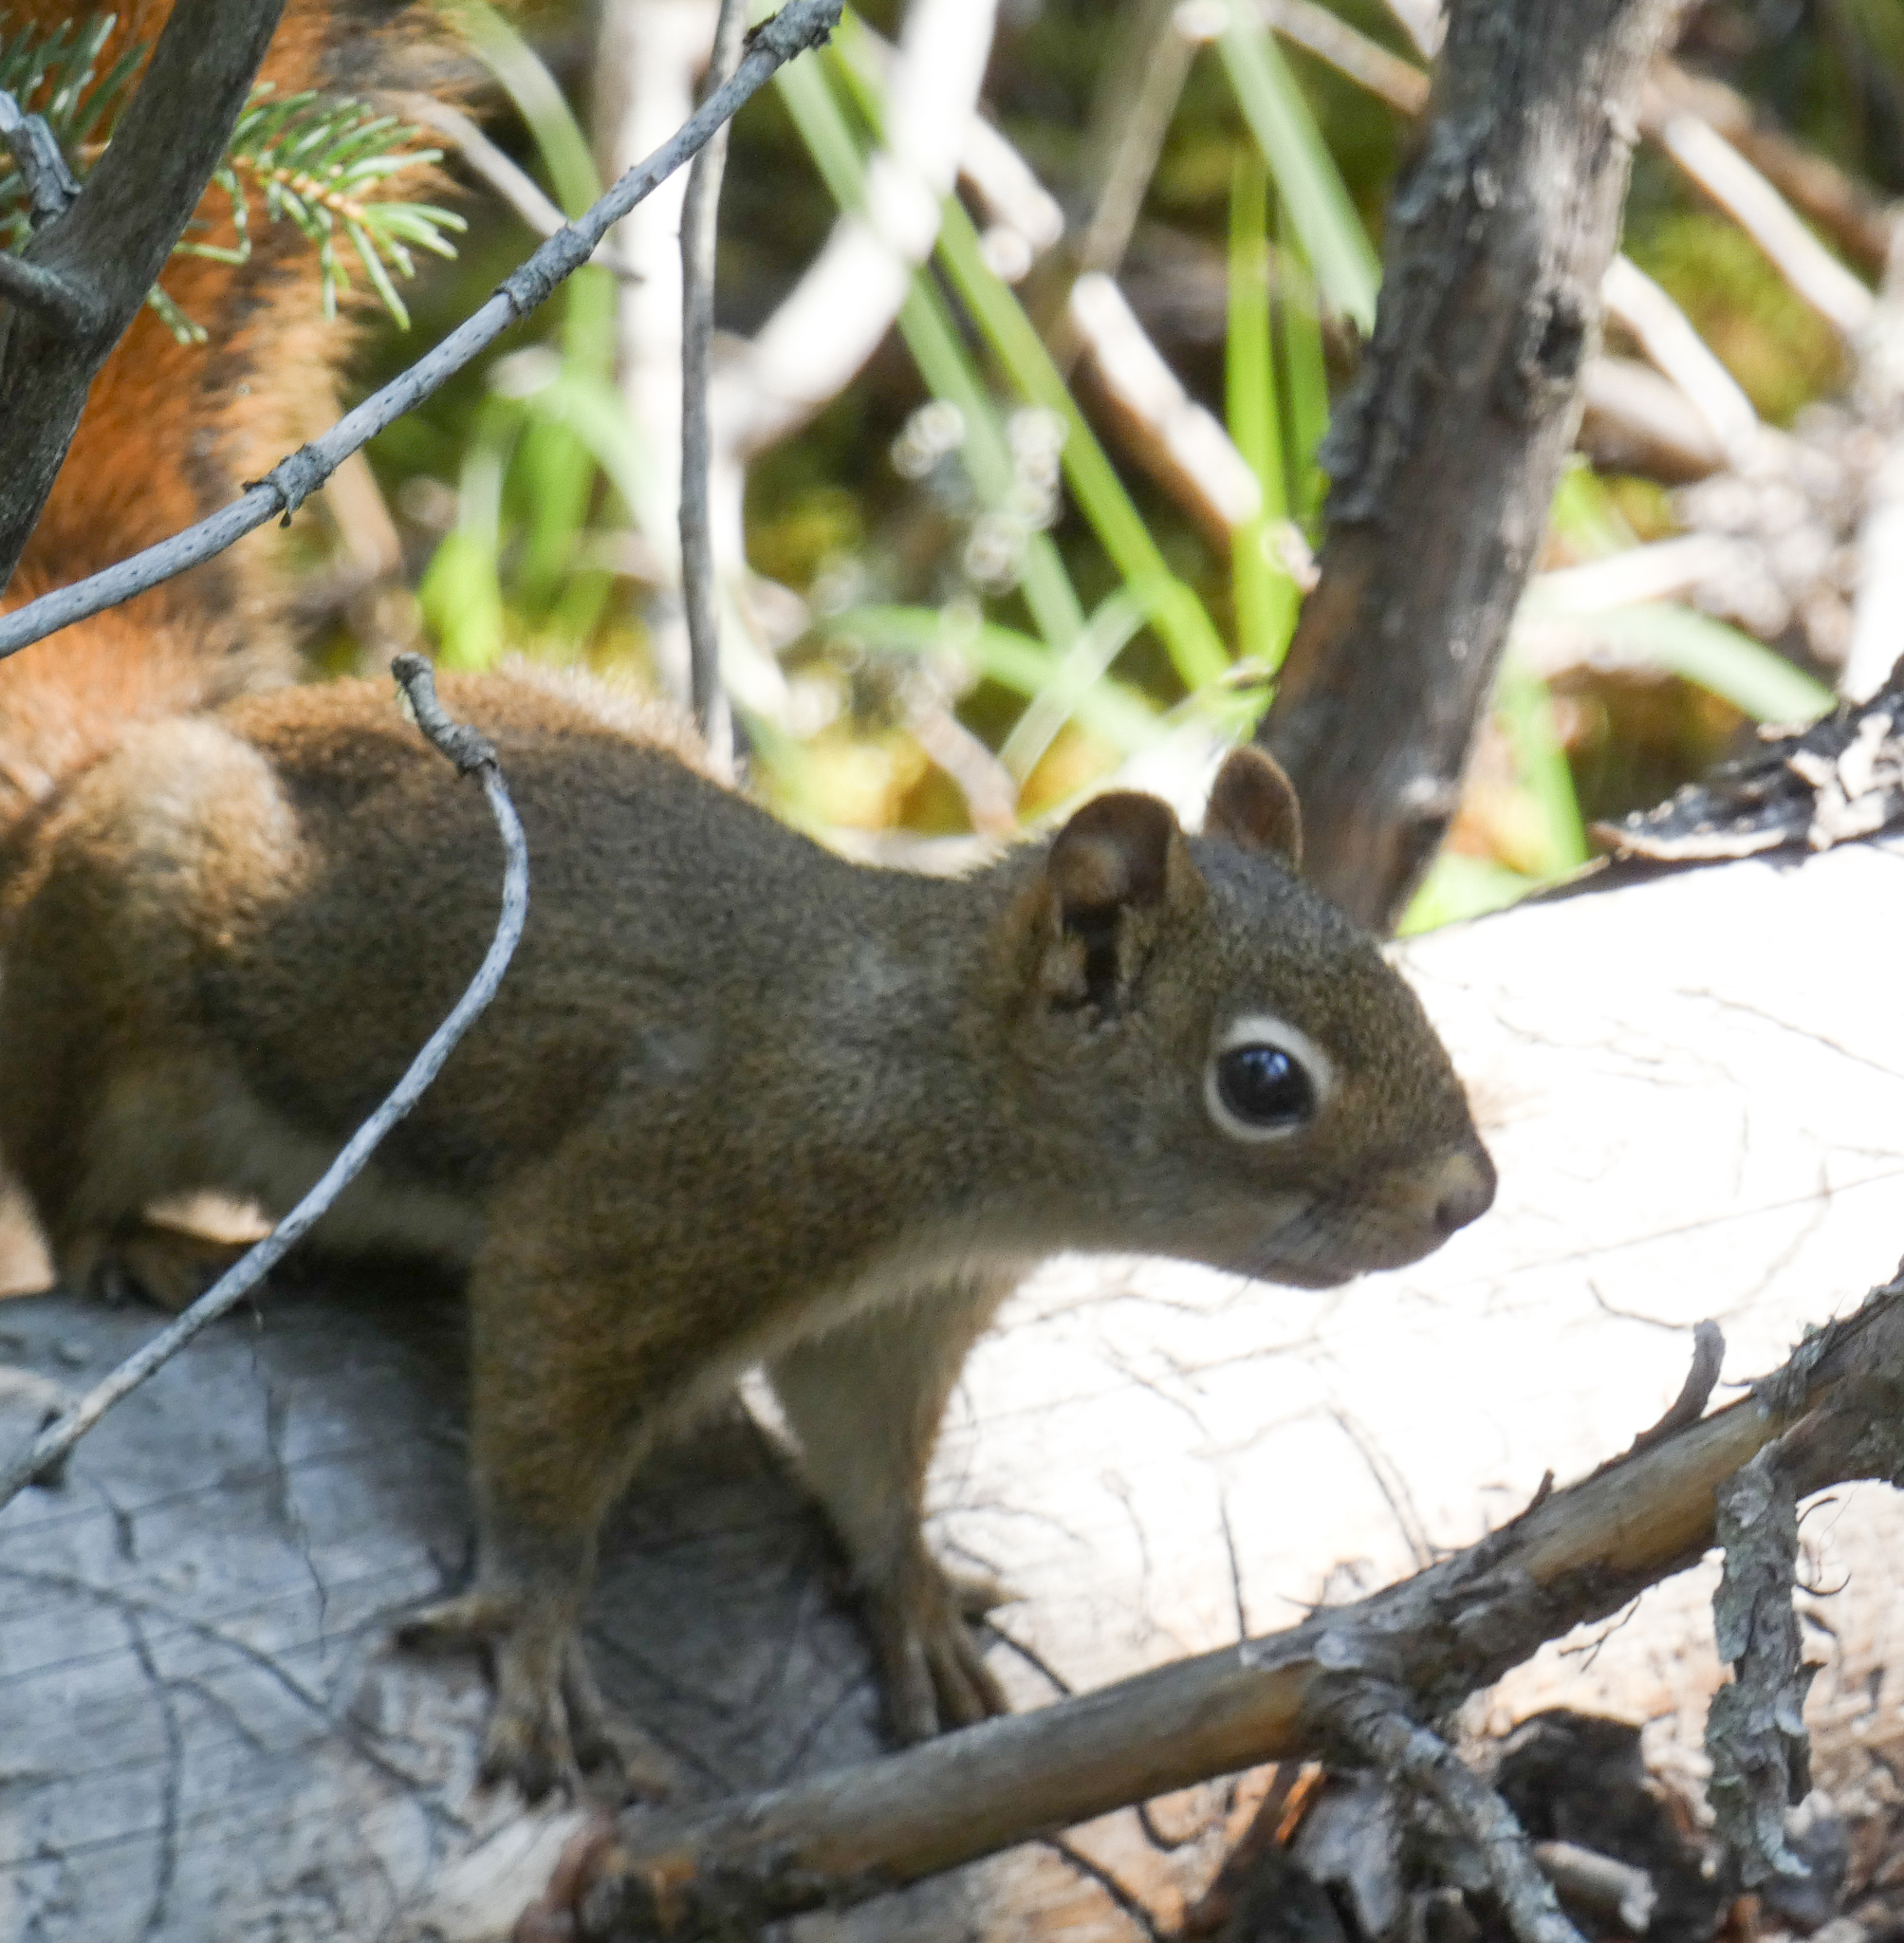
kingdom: Animalia
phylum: Chordata
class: Mammalia
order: Rodentia
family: Sciuridae
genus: Tamiasciurus
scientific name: Tamiasciurus hudsonicus
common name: Red squirrel
